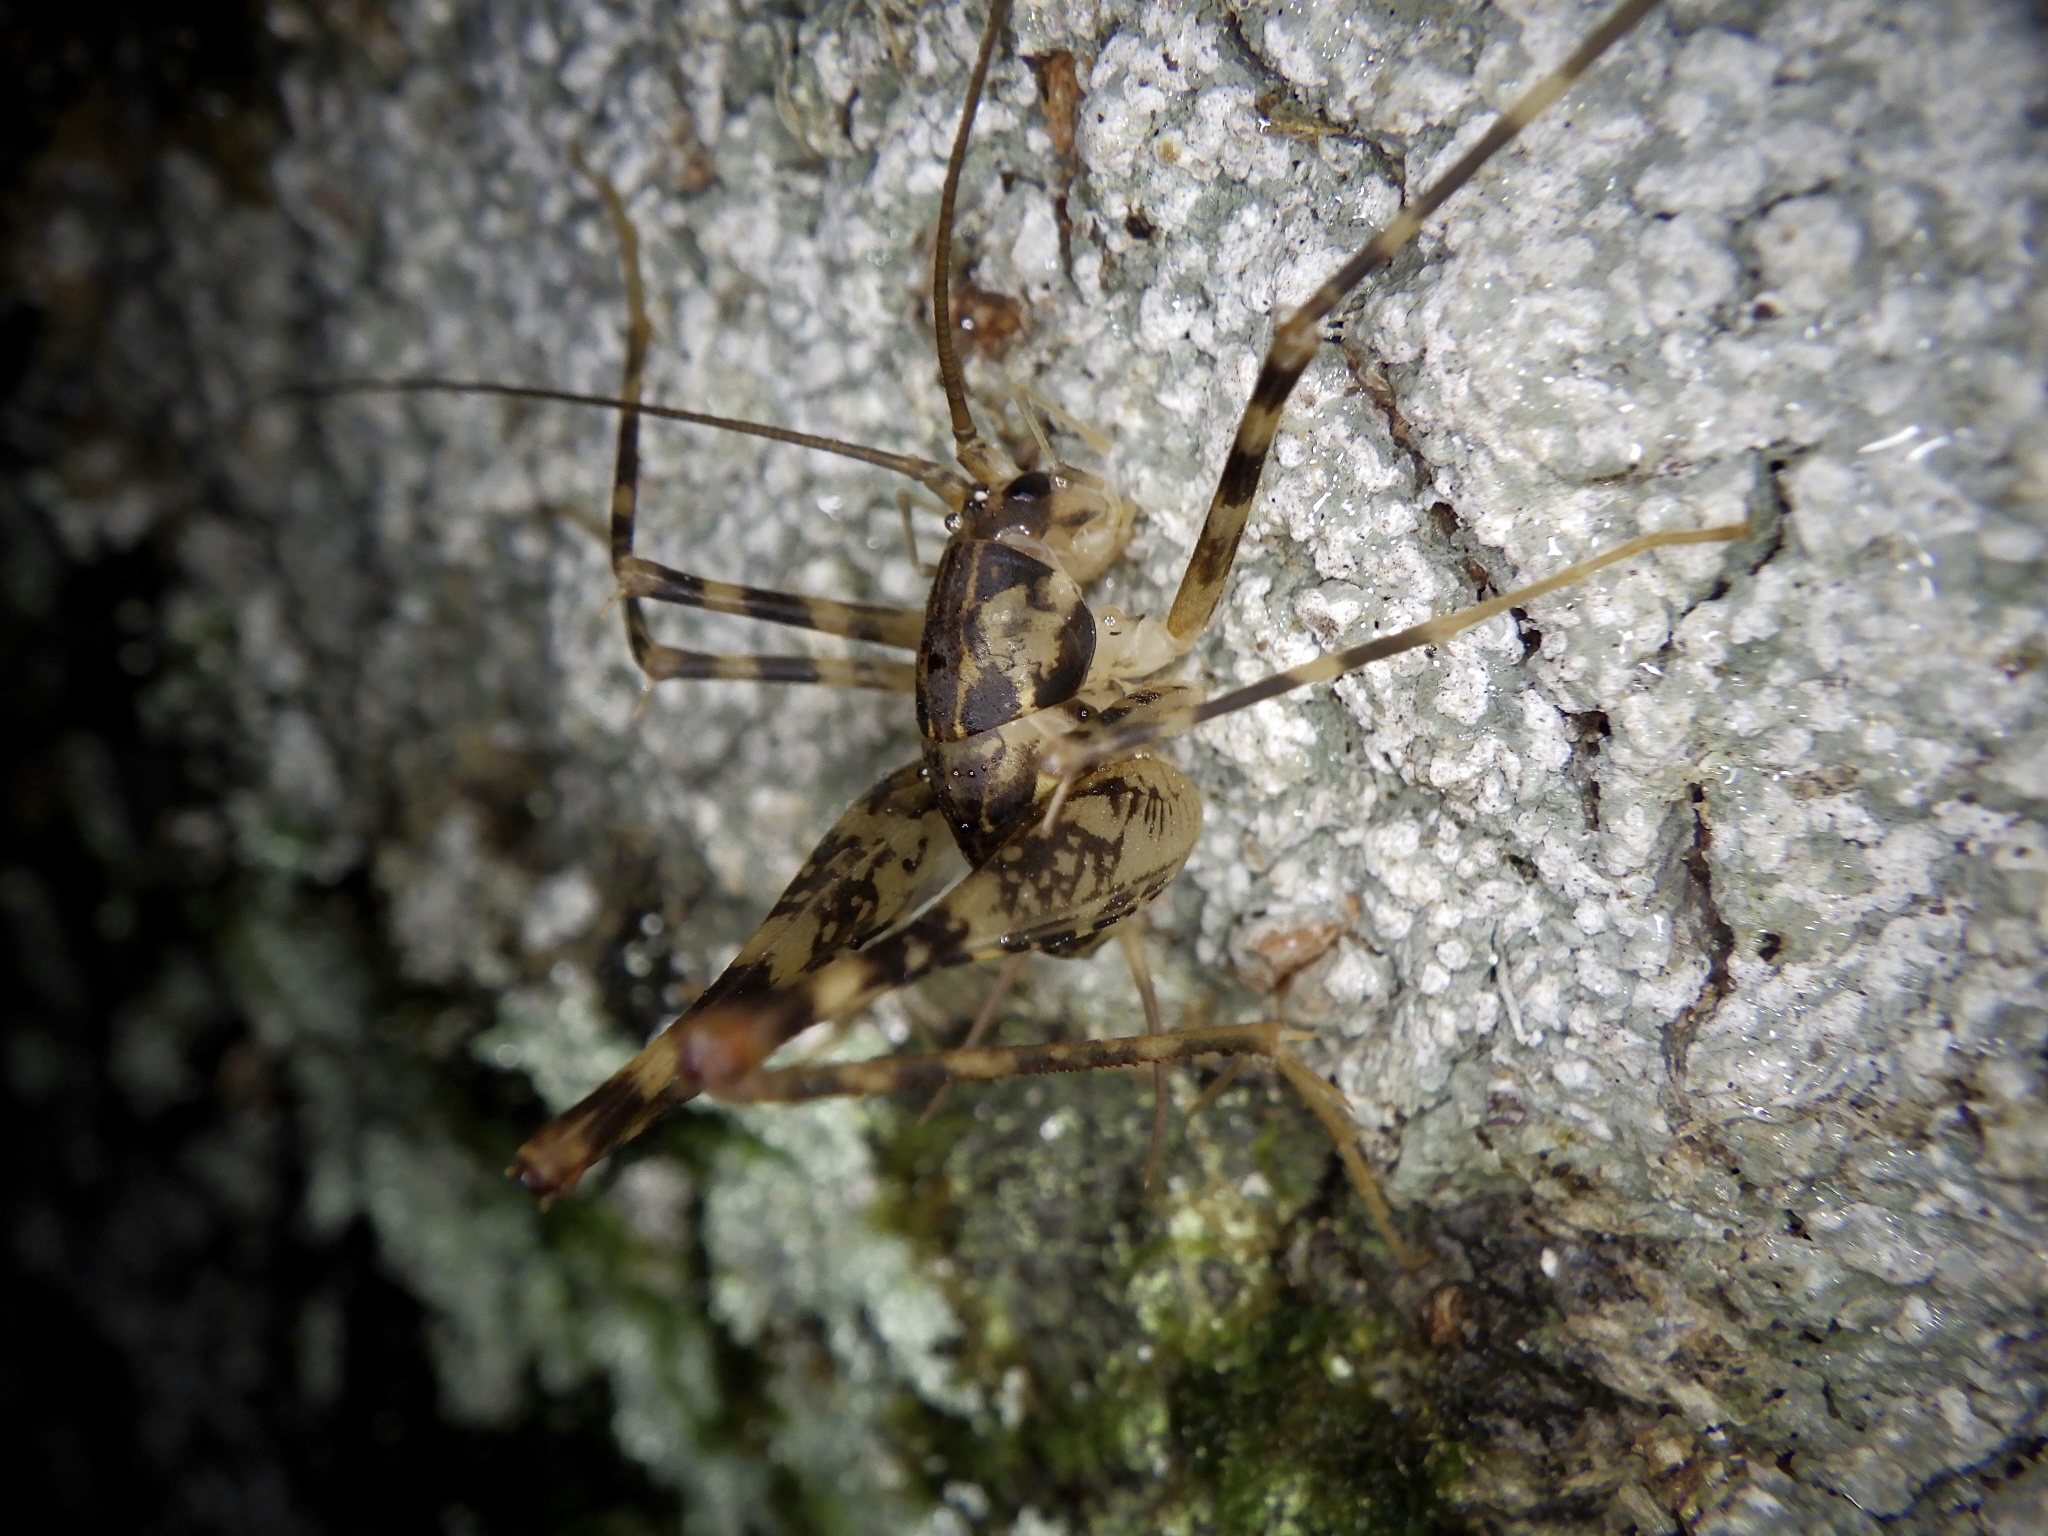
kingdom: Animalia
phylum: Arthropoda
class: Insecta
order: Orthoptera
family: Rhaphidophoridae
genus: Diestrammena
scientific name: Diestrammena japanica
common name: Japanese camel cricket
